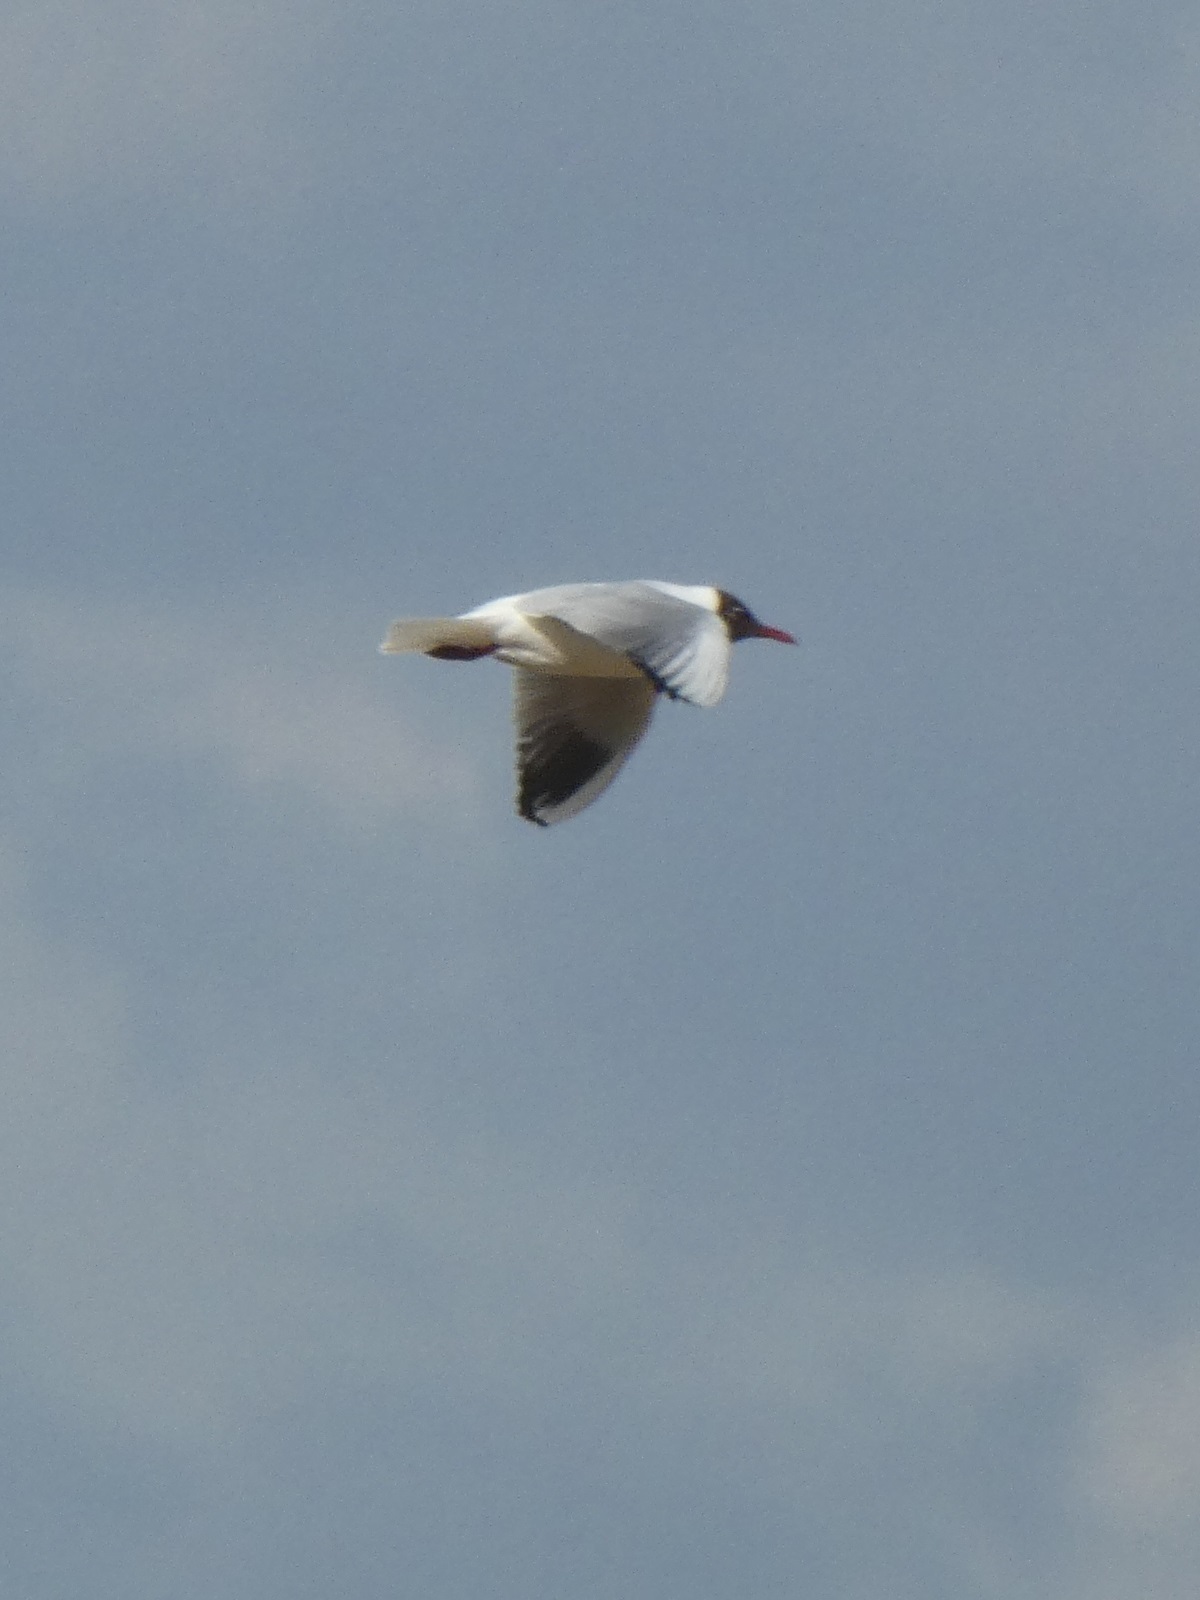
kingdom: Animalia
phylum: Chordata
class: Aves
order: Charadriiformes
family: Laridae
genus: Chroicocephalus
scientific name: Chroicocephalus ridibundus
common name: Black-headed gull
